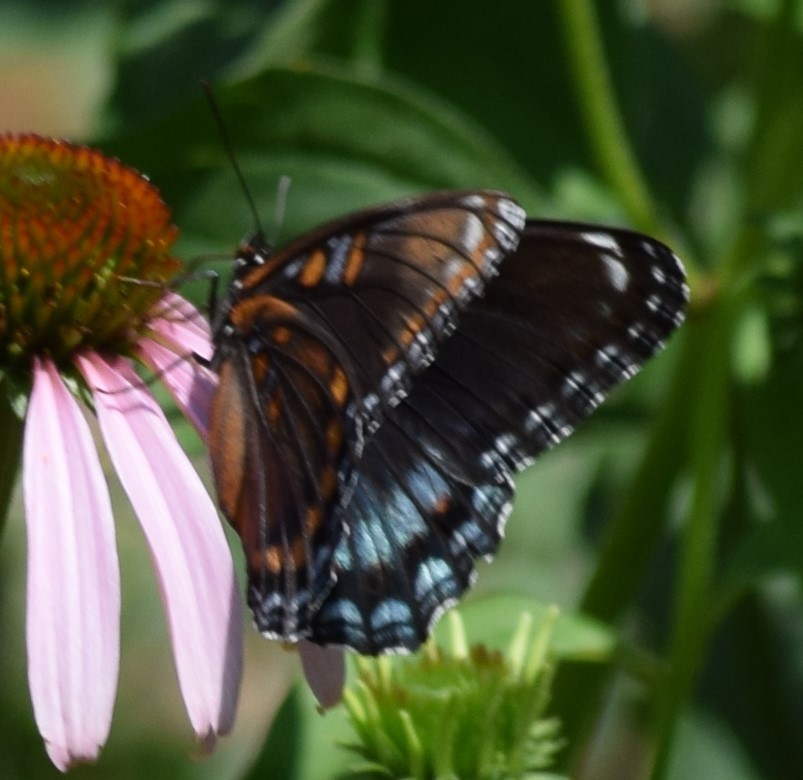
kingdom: Animalia
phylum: Arthropoda
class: Insecta
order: Lepidoptera
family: Nymphalidae
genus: Limenitis
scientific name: Limenitis arthemis
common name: Red-spotted admiral
